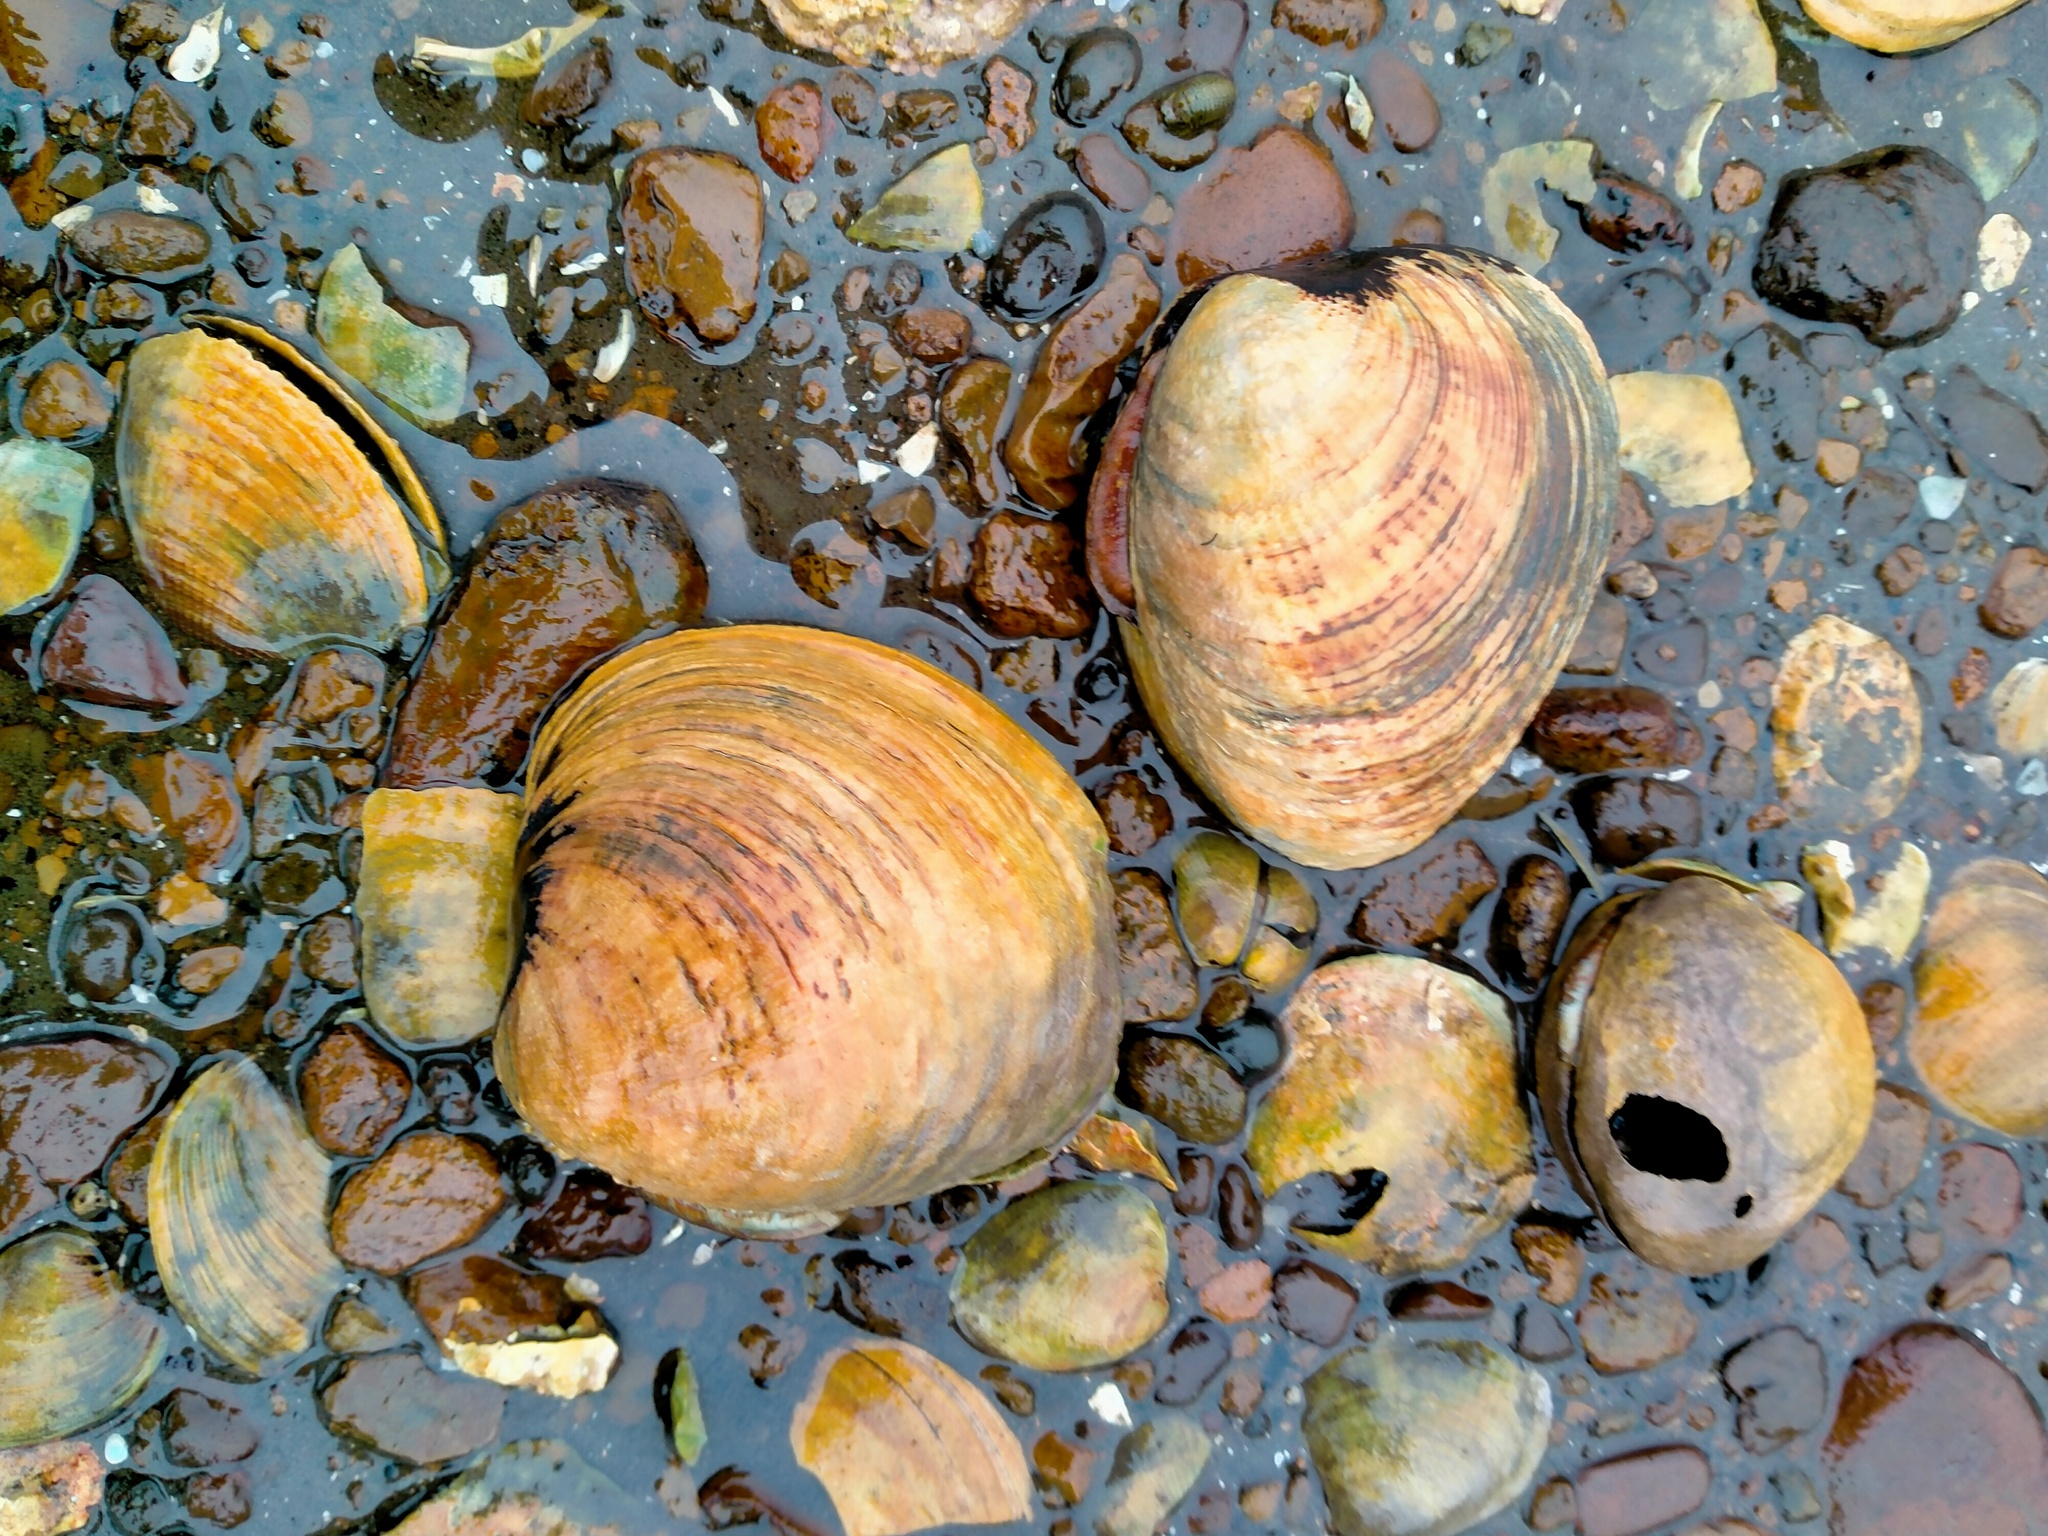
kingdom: Animalia
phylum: Mollusca
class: Bivalvia
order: Venerida
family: Veneridae
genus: Austrovenus
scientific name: Austrovenus stutchburyi
